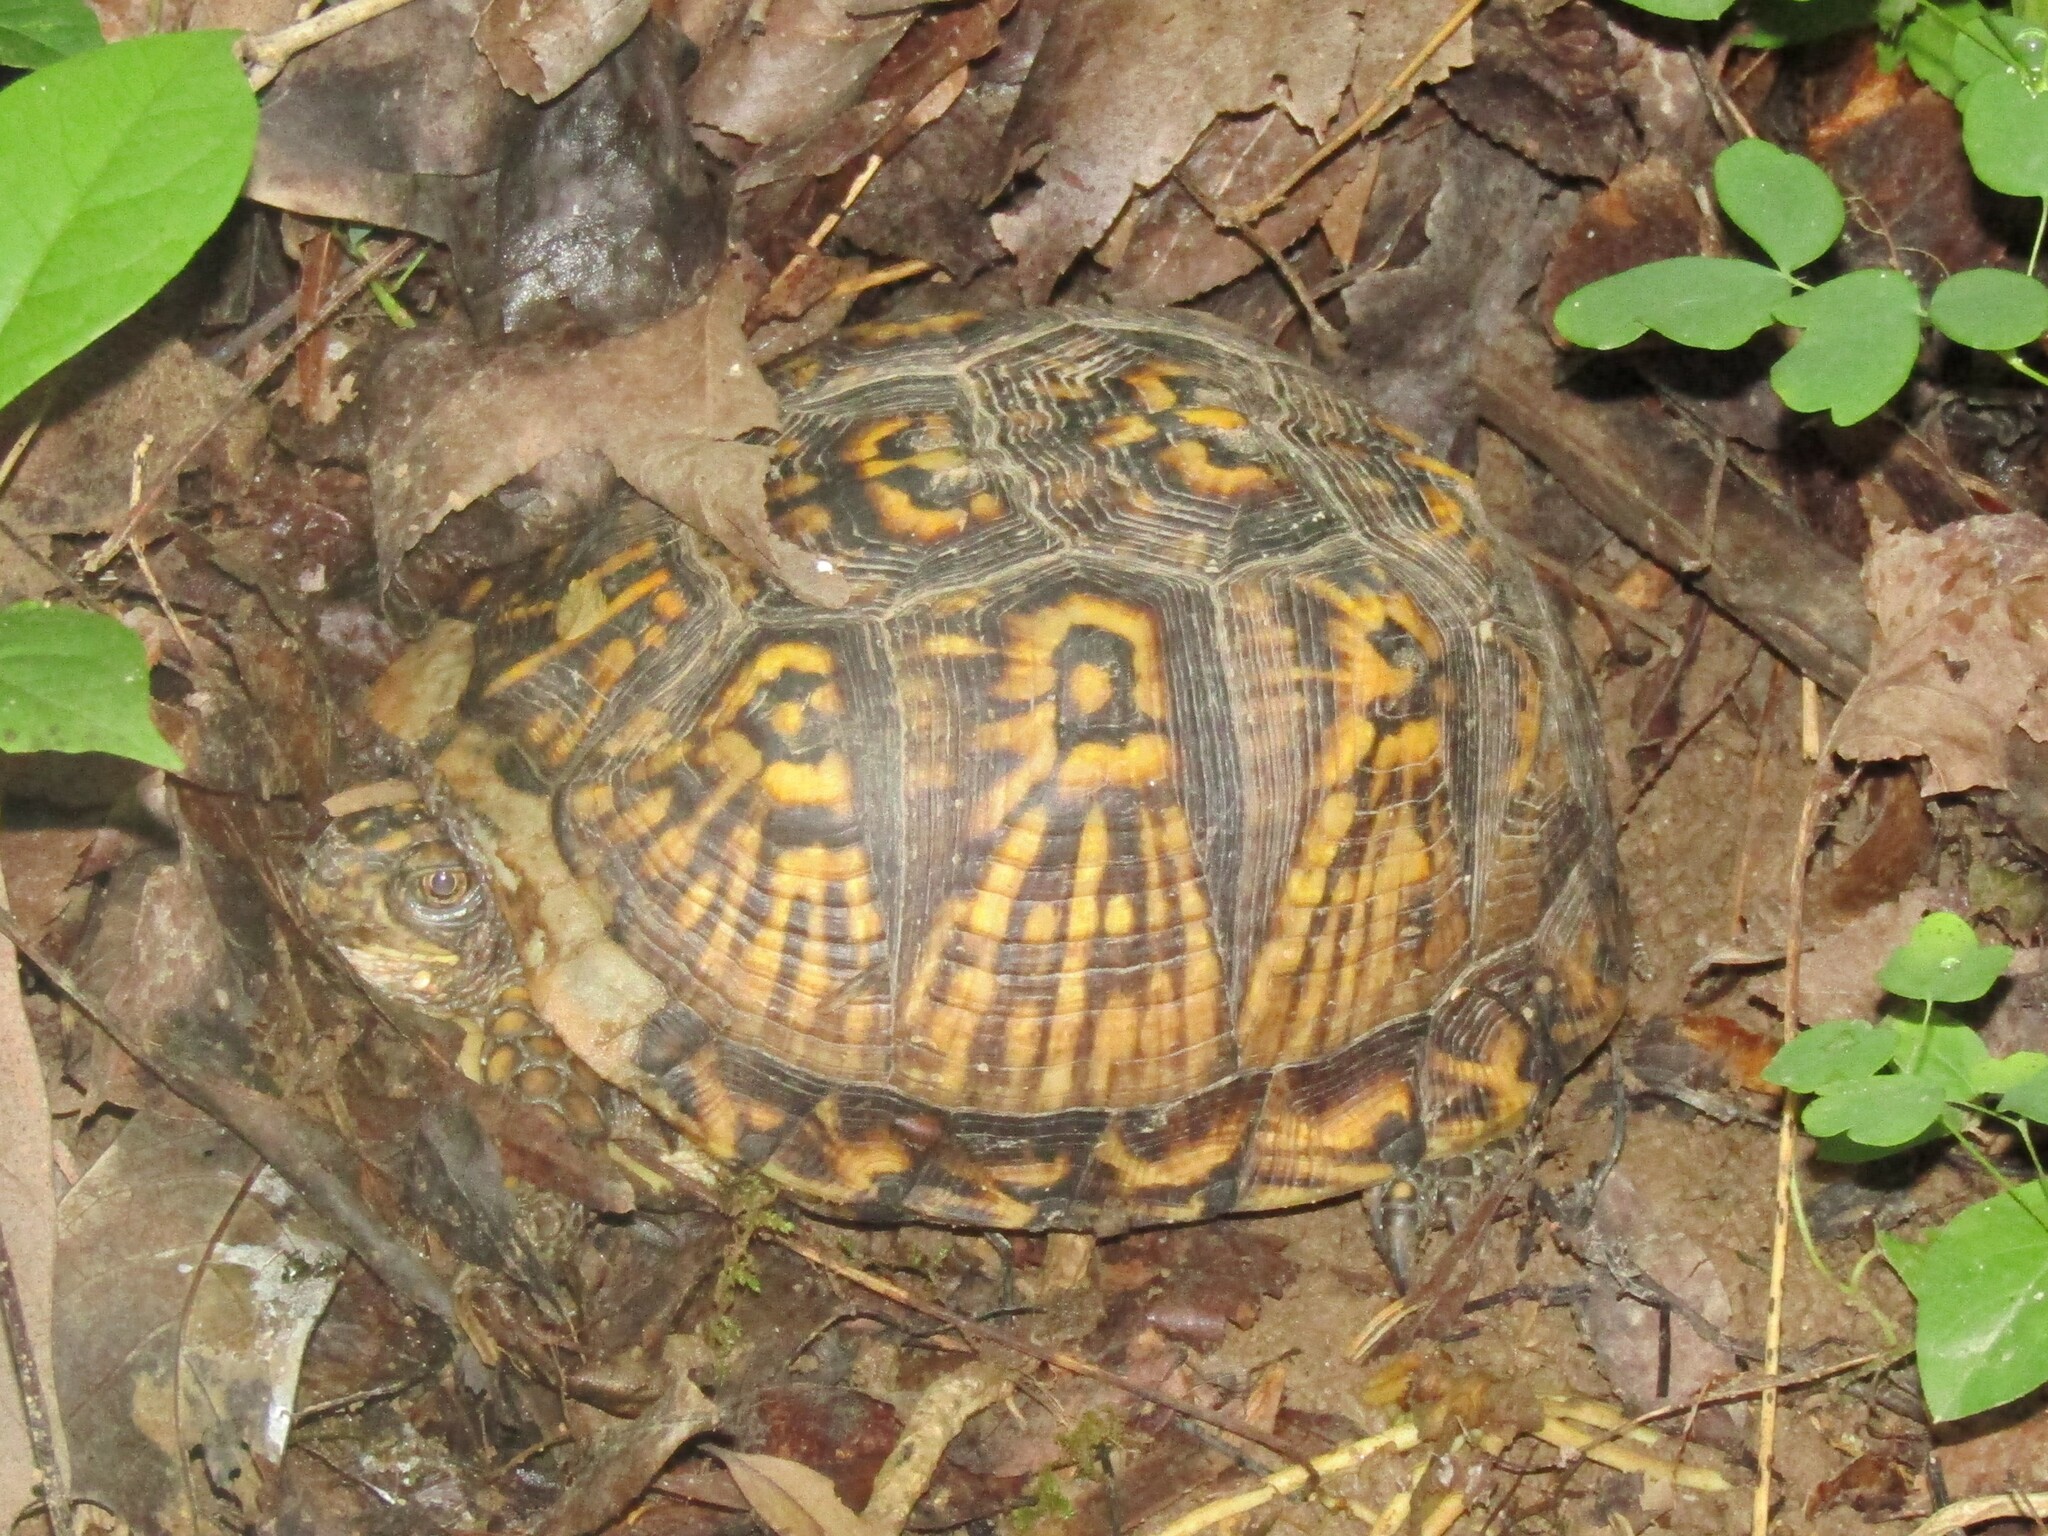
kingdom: Animalia
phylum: Chordata
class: Testudines
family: Emydidae
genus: Terrapene
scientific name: Terrapene carolina
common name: Common box turtle
